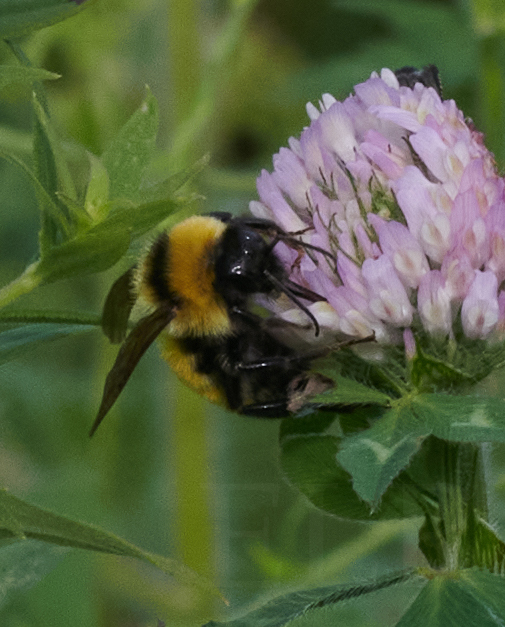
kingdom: Animalia
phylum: Arthropoda
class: Insecta
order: Hymenoptera
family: Apidae
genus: Bombus
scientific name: Bombus fervidus
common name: Yellow bumble bee
